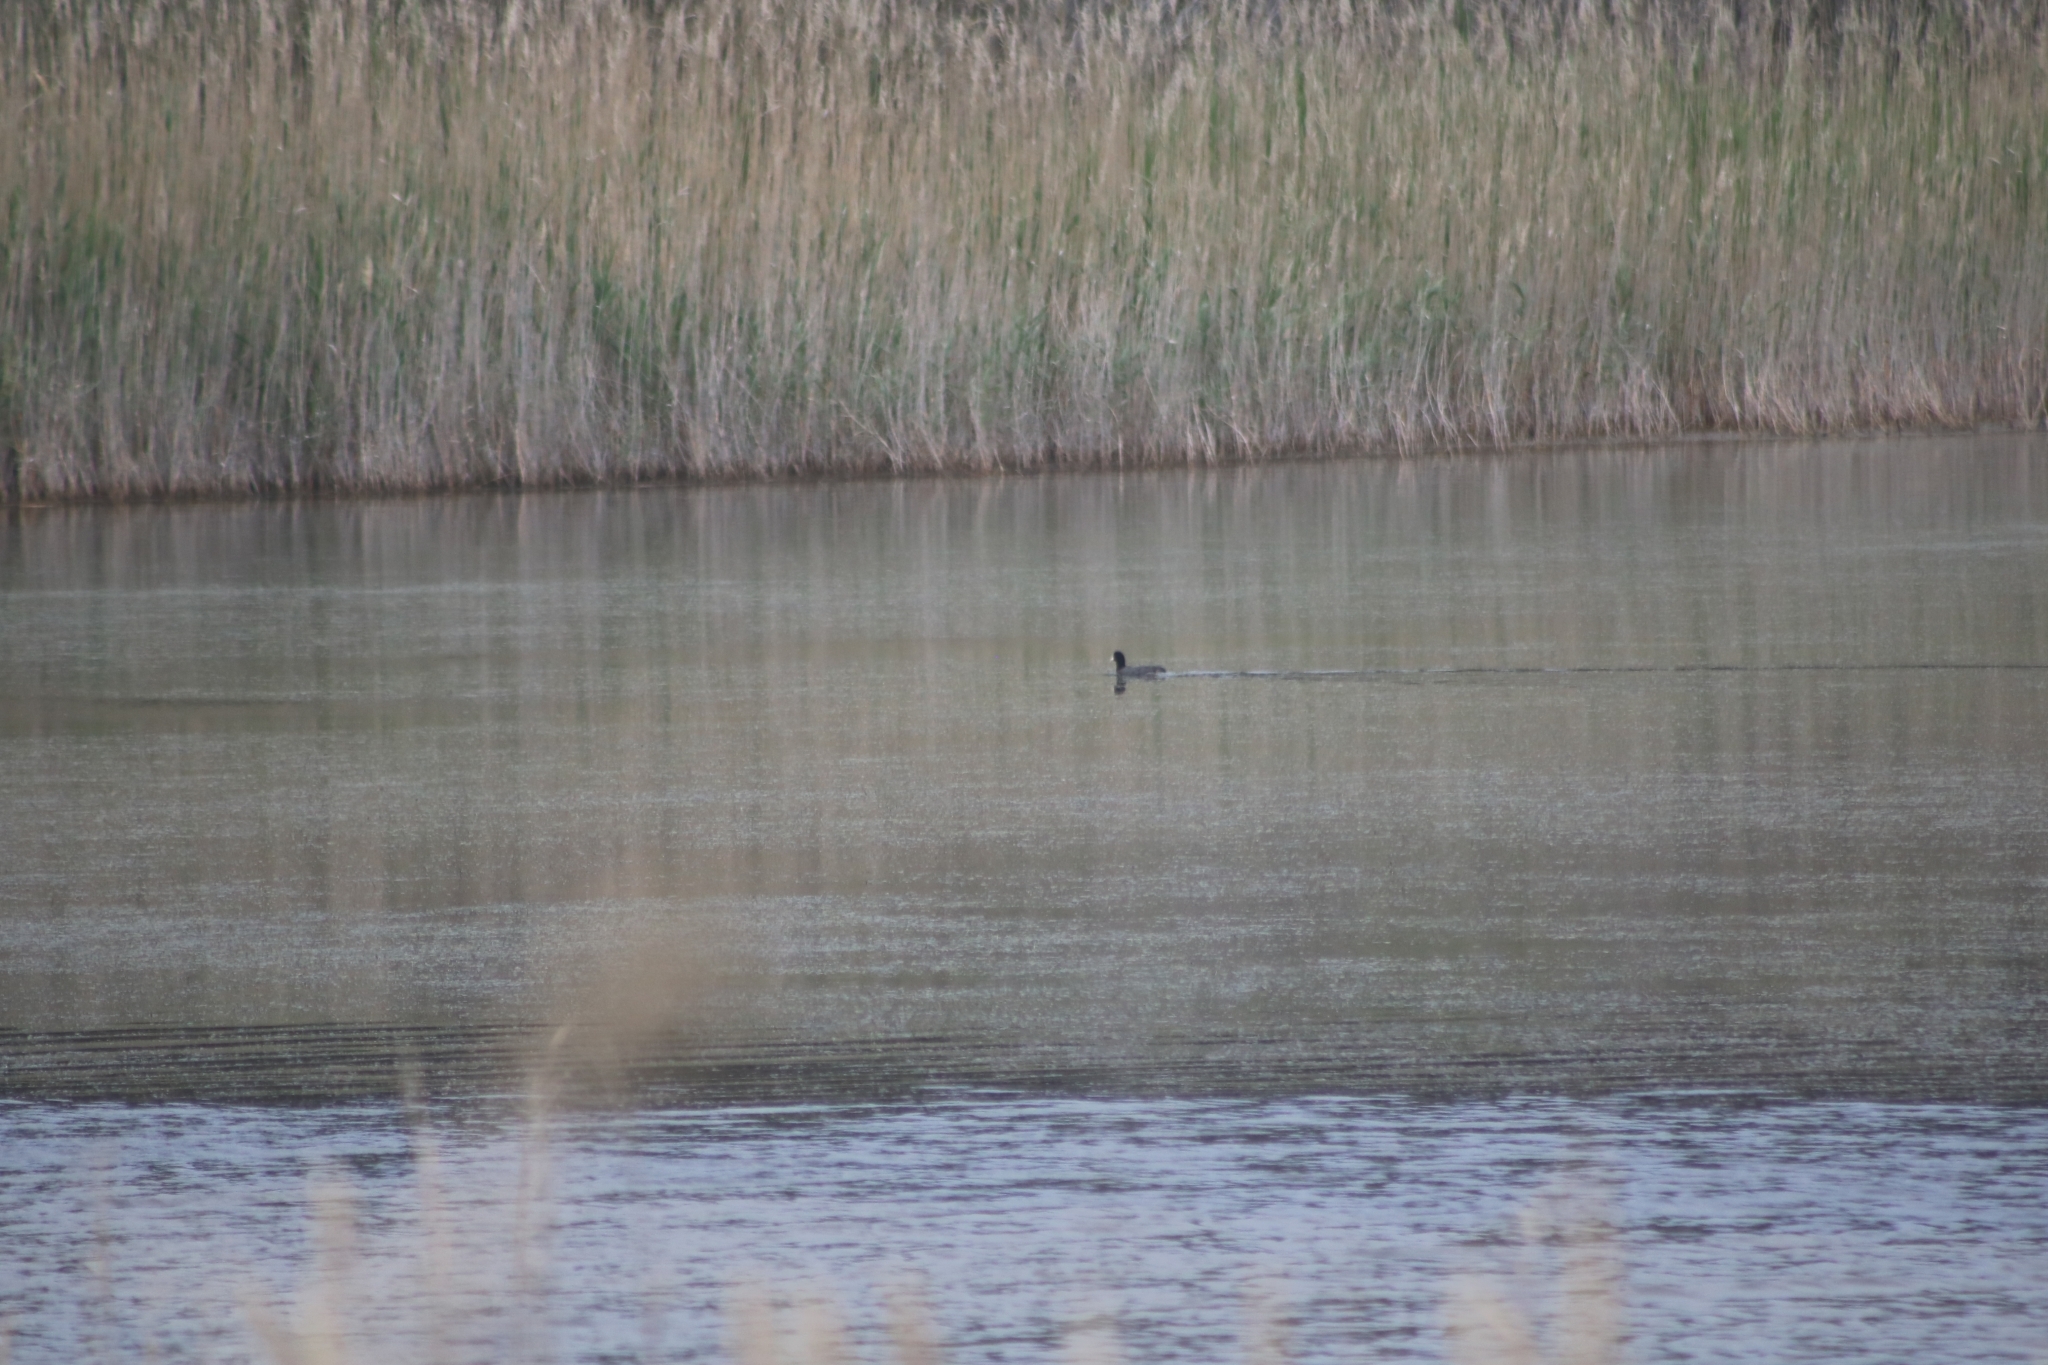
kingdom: Animalia
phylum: Chordata
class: Aves
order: Gruiformes
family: Rallidae
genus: Fulica
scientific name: Fulica atra
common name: Eurasian coot
